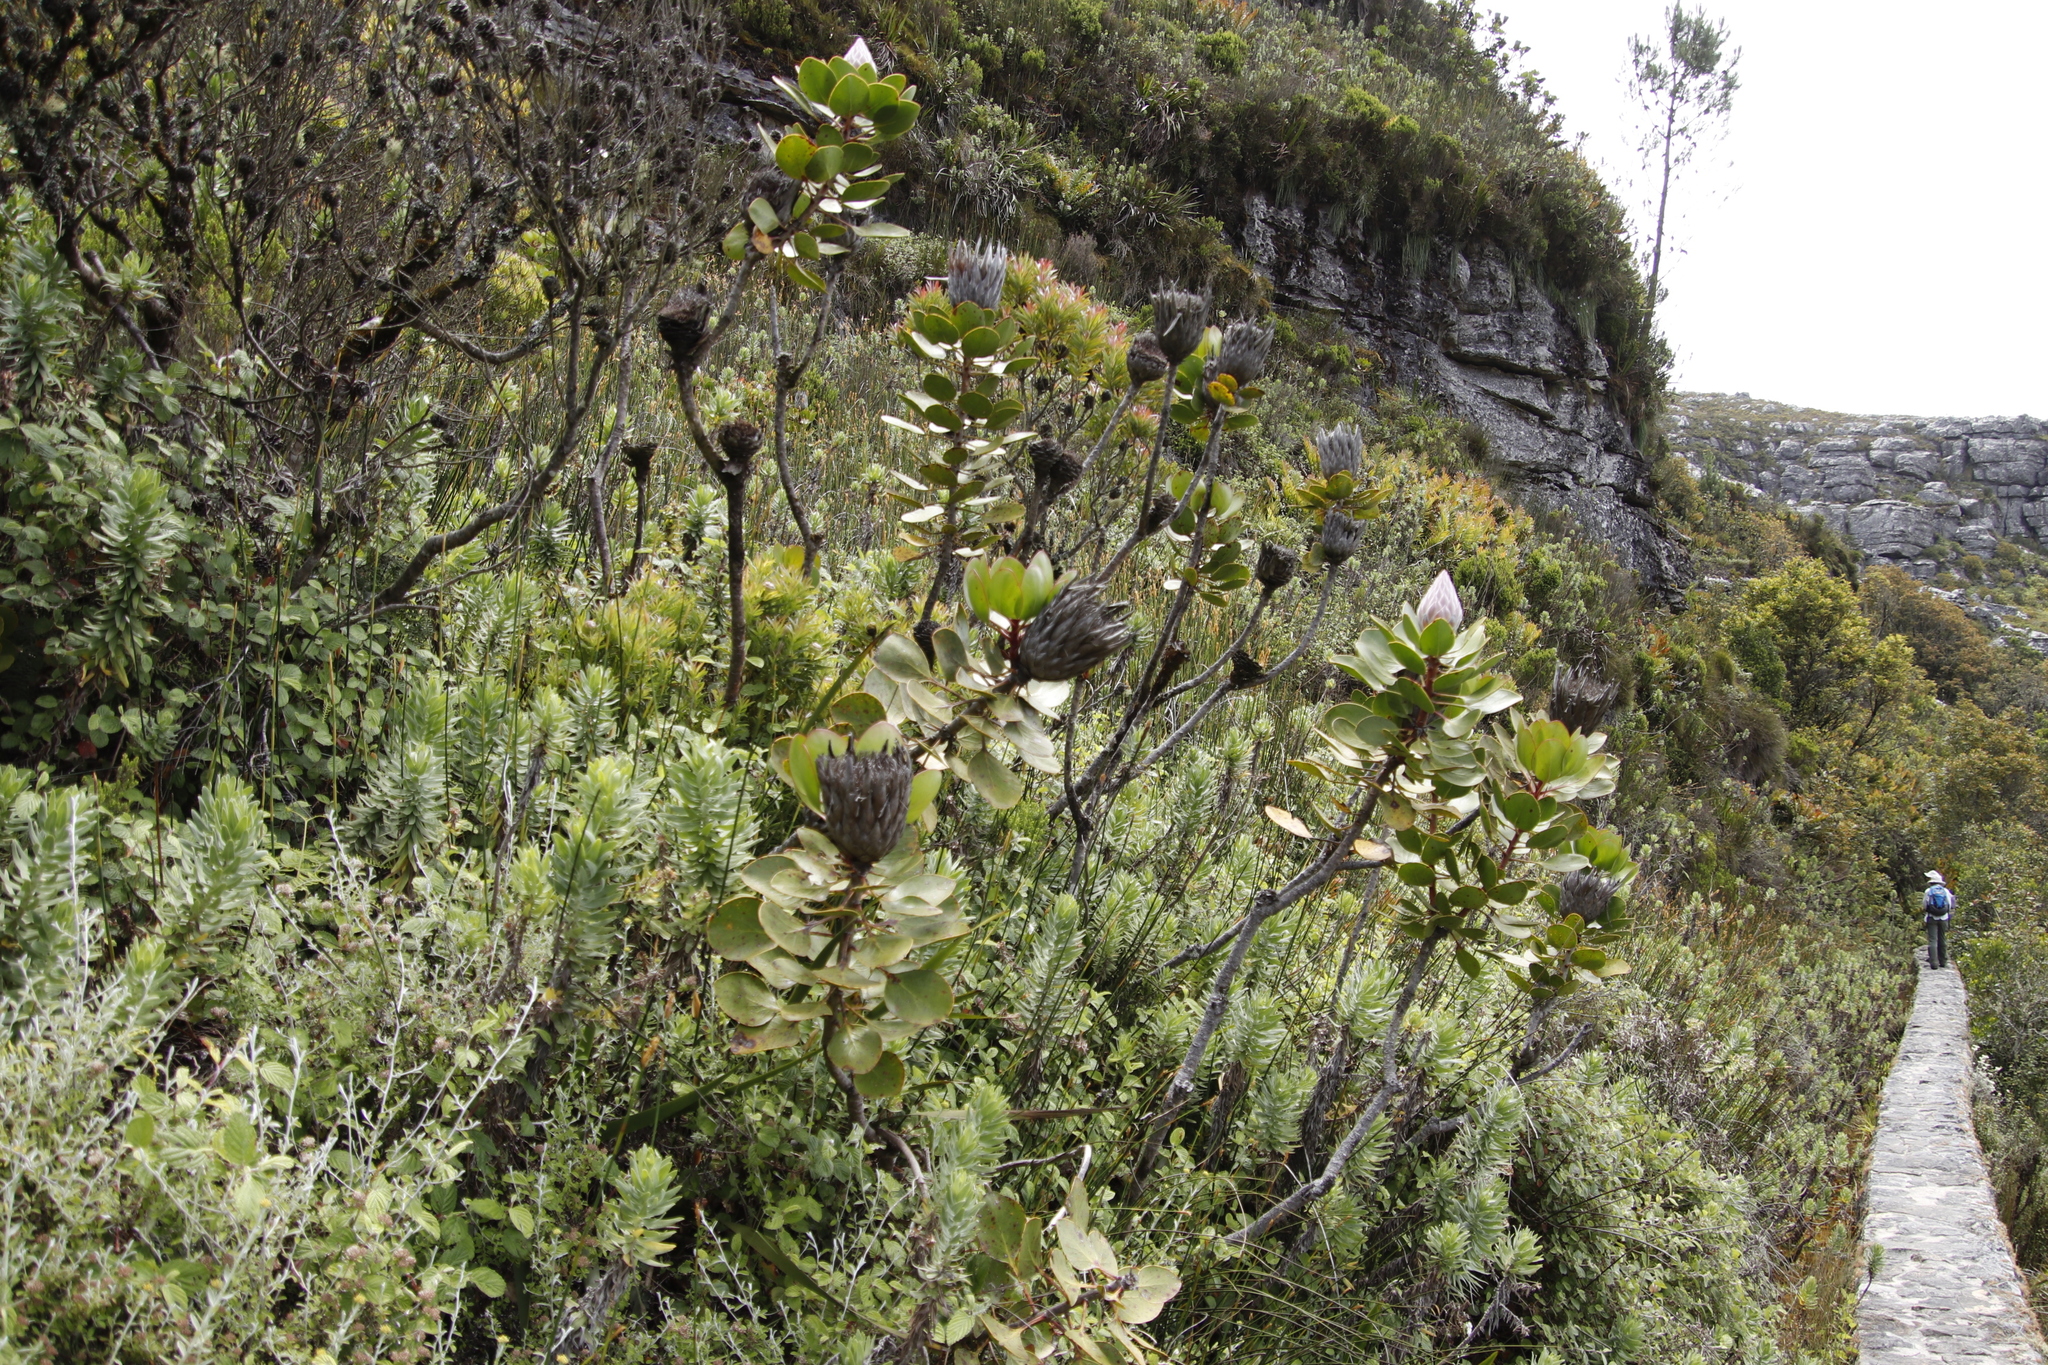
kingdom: Plantae
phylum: Tracheophyta
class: Magnoliopsida
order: Proteales
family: Proteaceae
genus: Protea
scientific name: Protea cynaroides
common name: King protea
